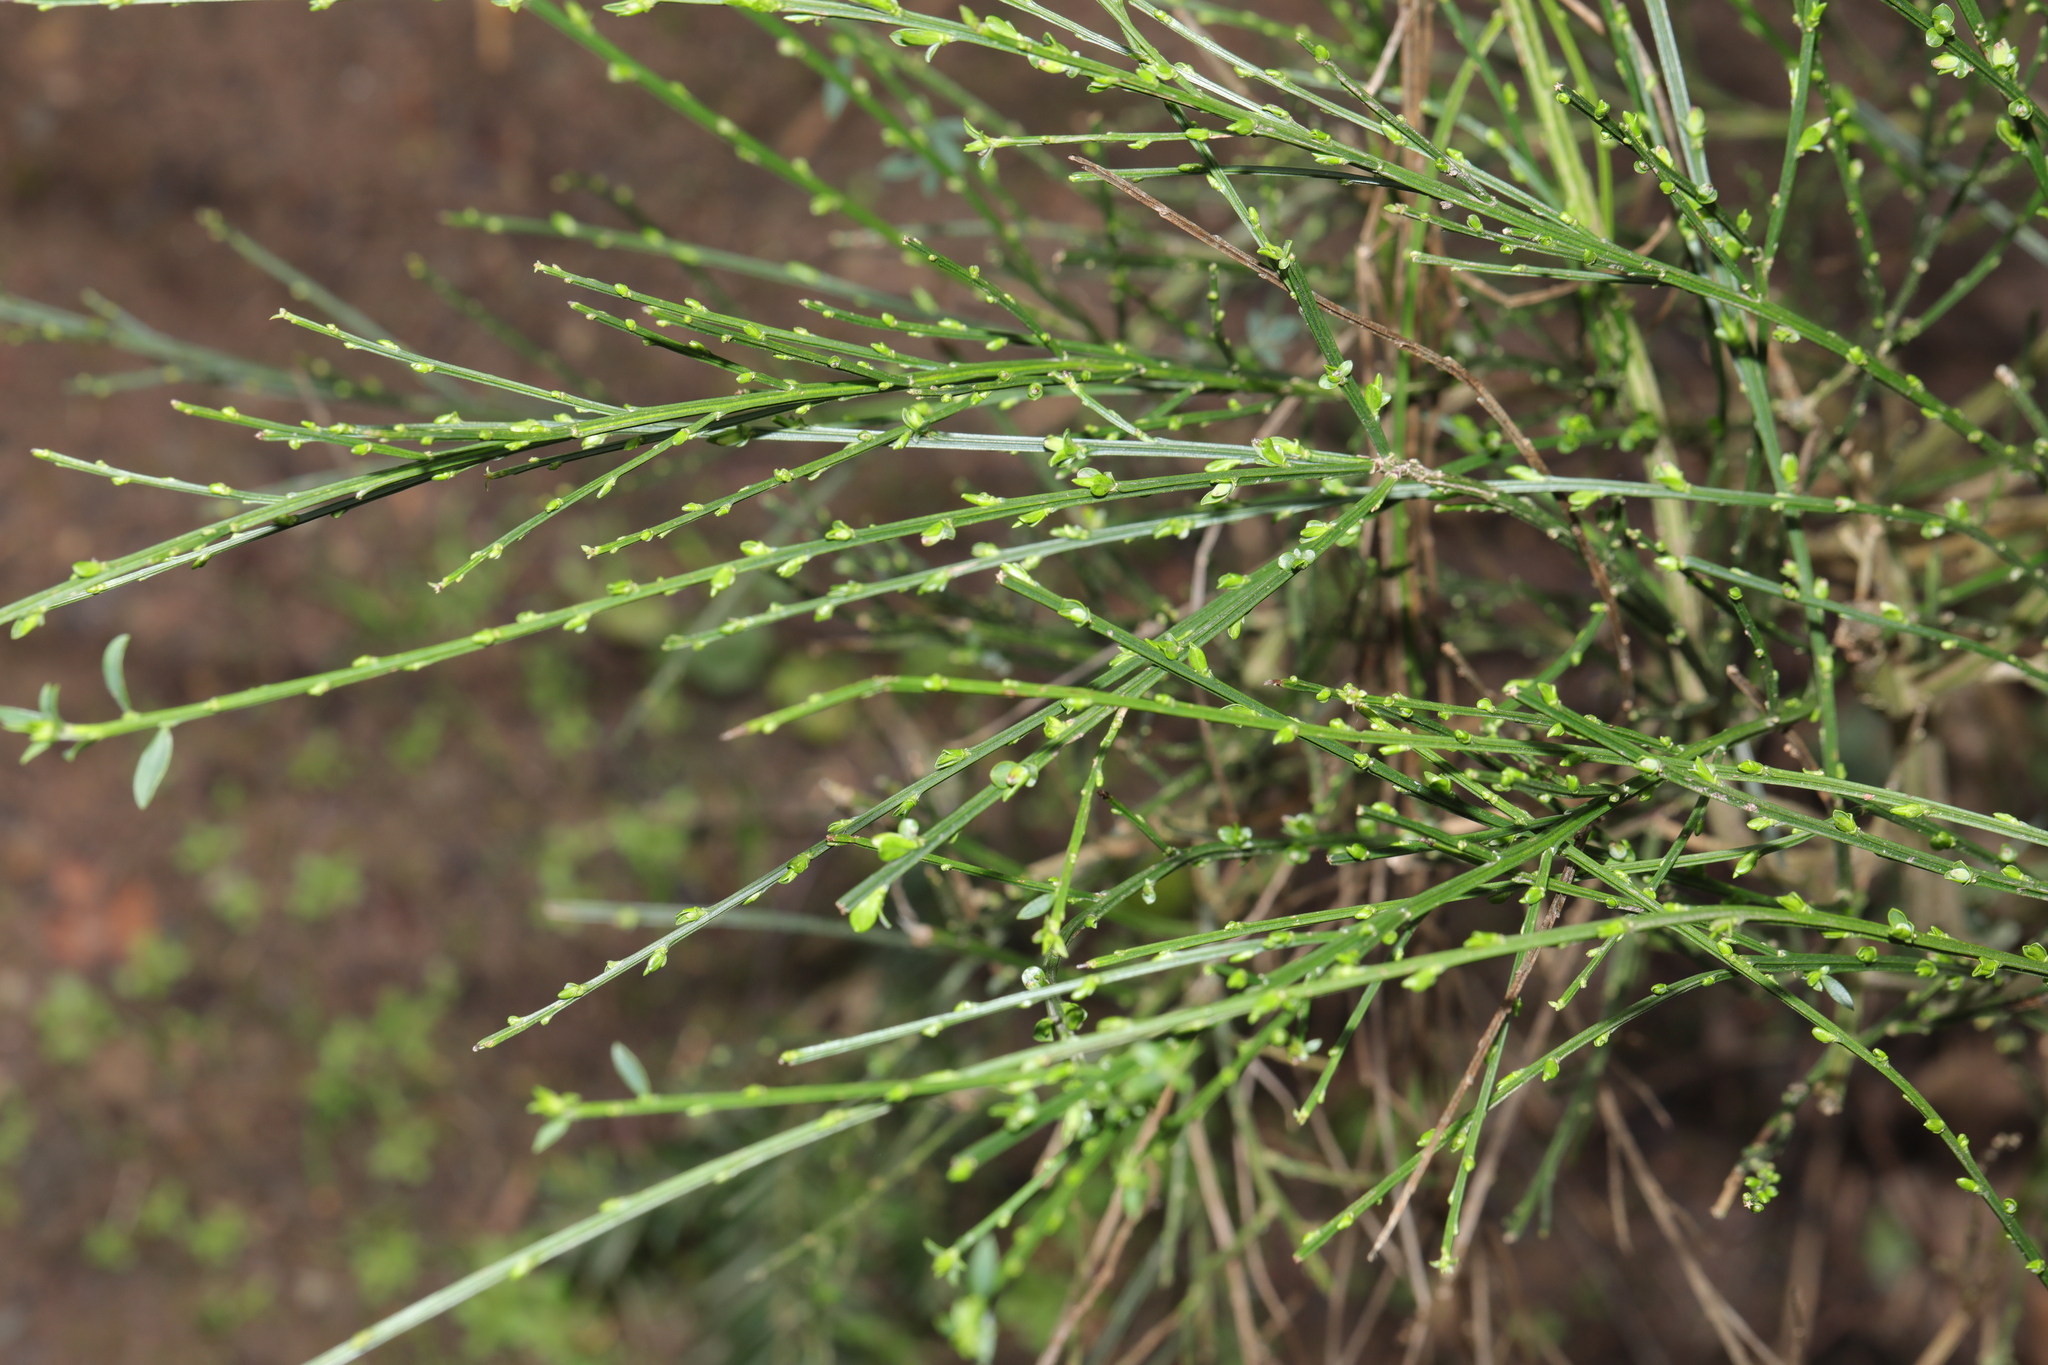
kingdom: Plantae
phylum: Tracheophyta
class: Magnoliopsida
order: Fabales
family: Fabaceae
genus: Cytisus
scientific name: Cytisus scoparius
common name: Scotch broom
